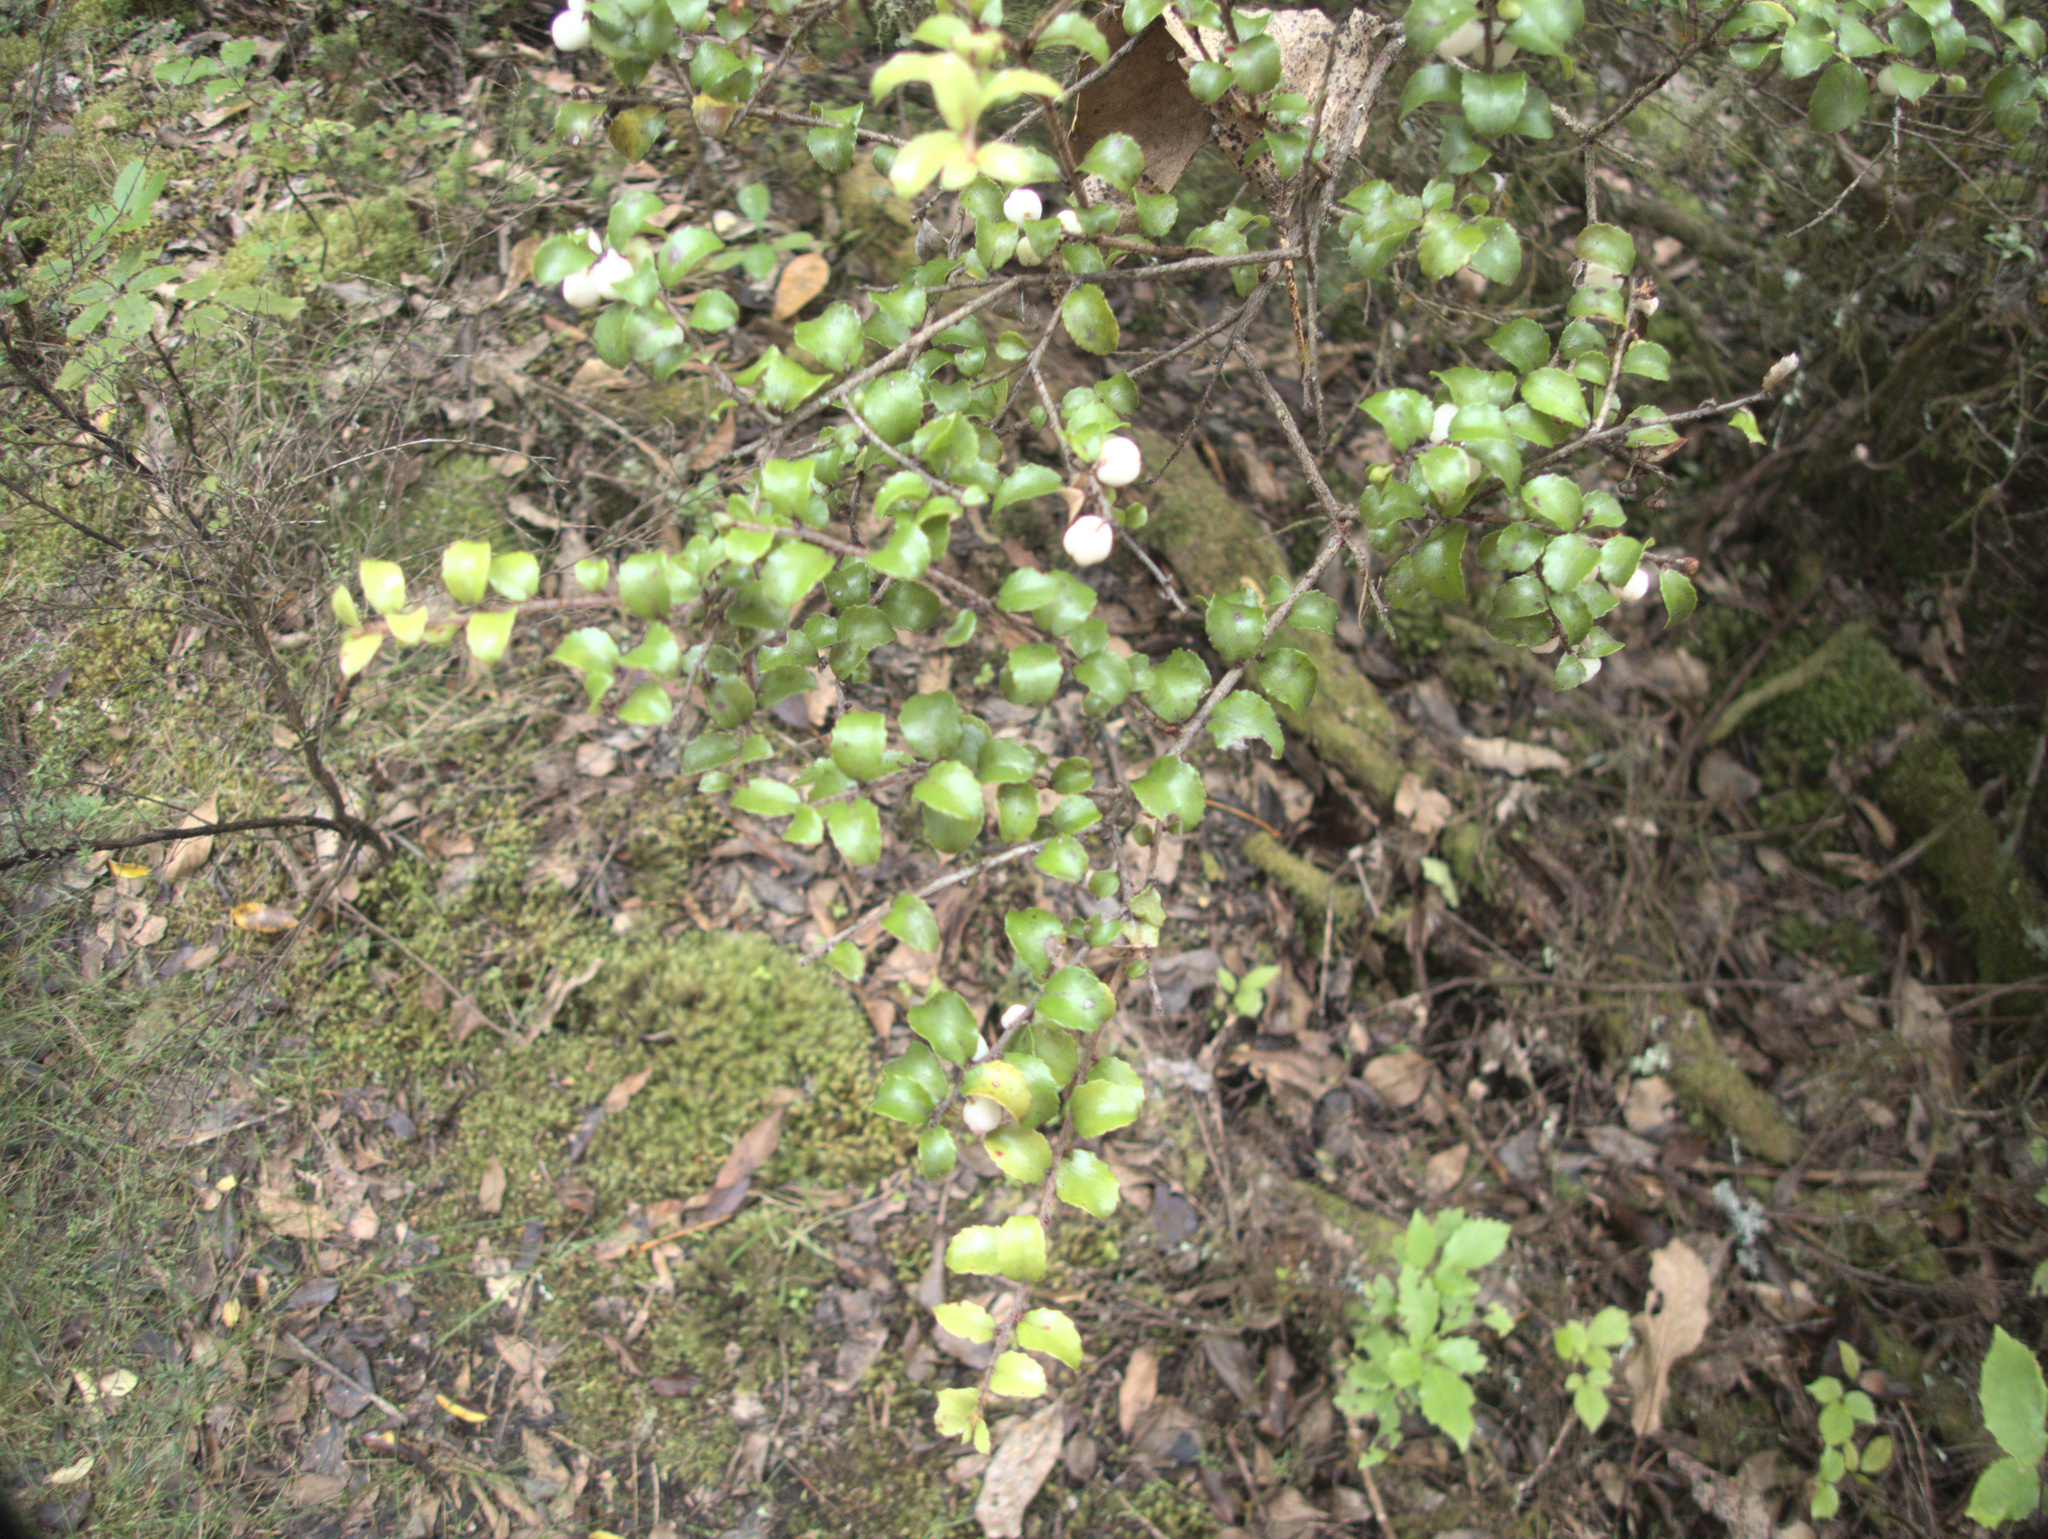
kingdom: Plantae
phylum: Tracheophyta
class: Magnoliopsida
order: Ericales
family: Ericaceae
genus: Gaultheria
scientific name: Gaultheria antipoda
